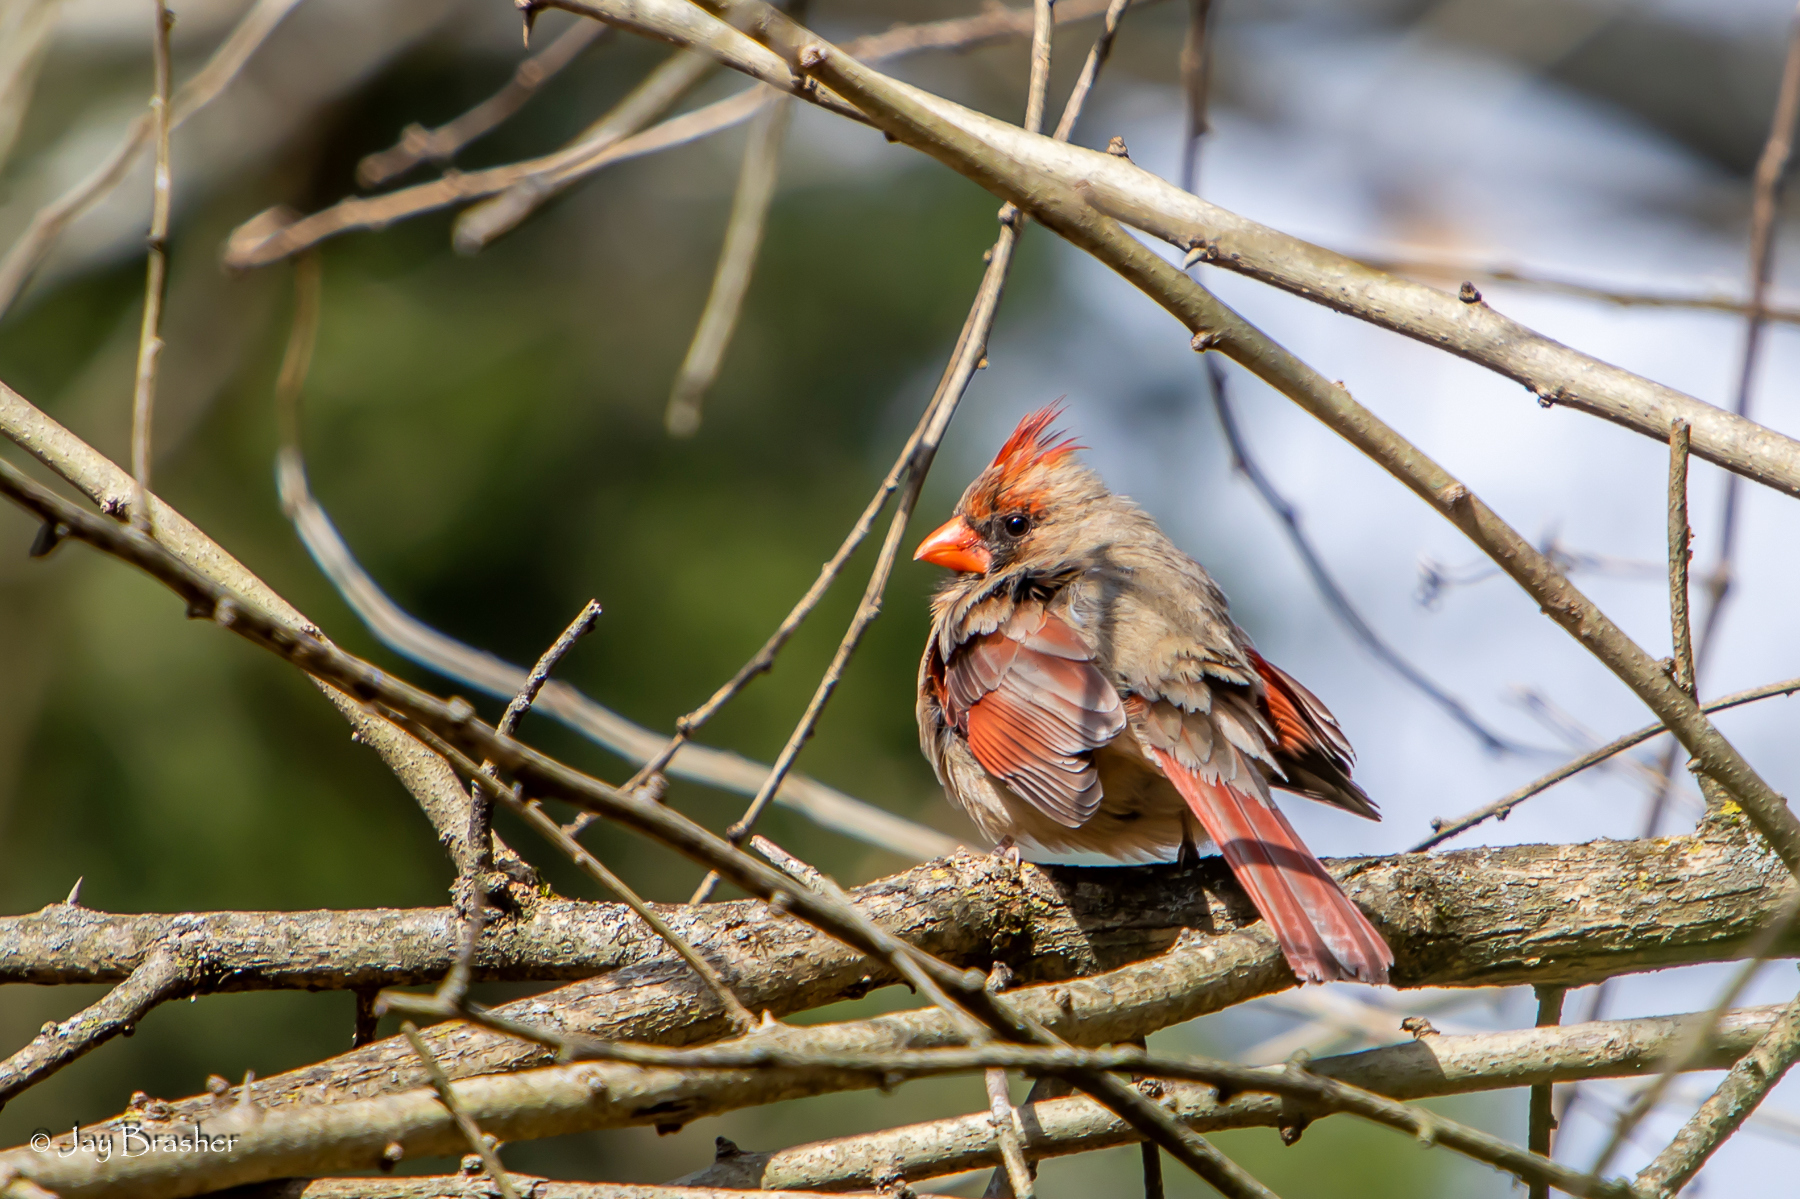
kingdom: Animalia
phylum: Chordata
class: Aves
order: Passeriformes
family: Cardinalidae
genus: Cardinalis
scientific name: Cardinalis cardinalis
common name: Northern cardinal
